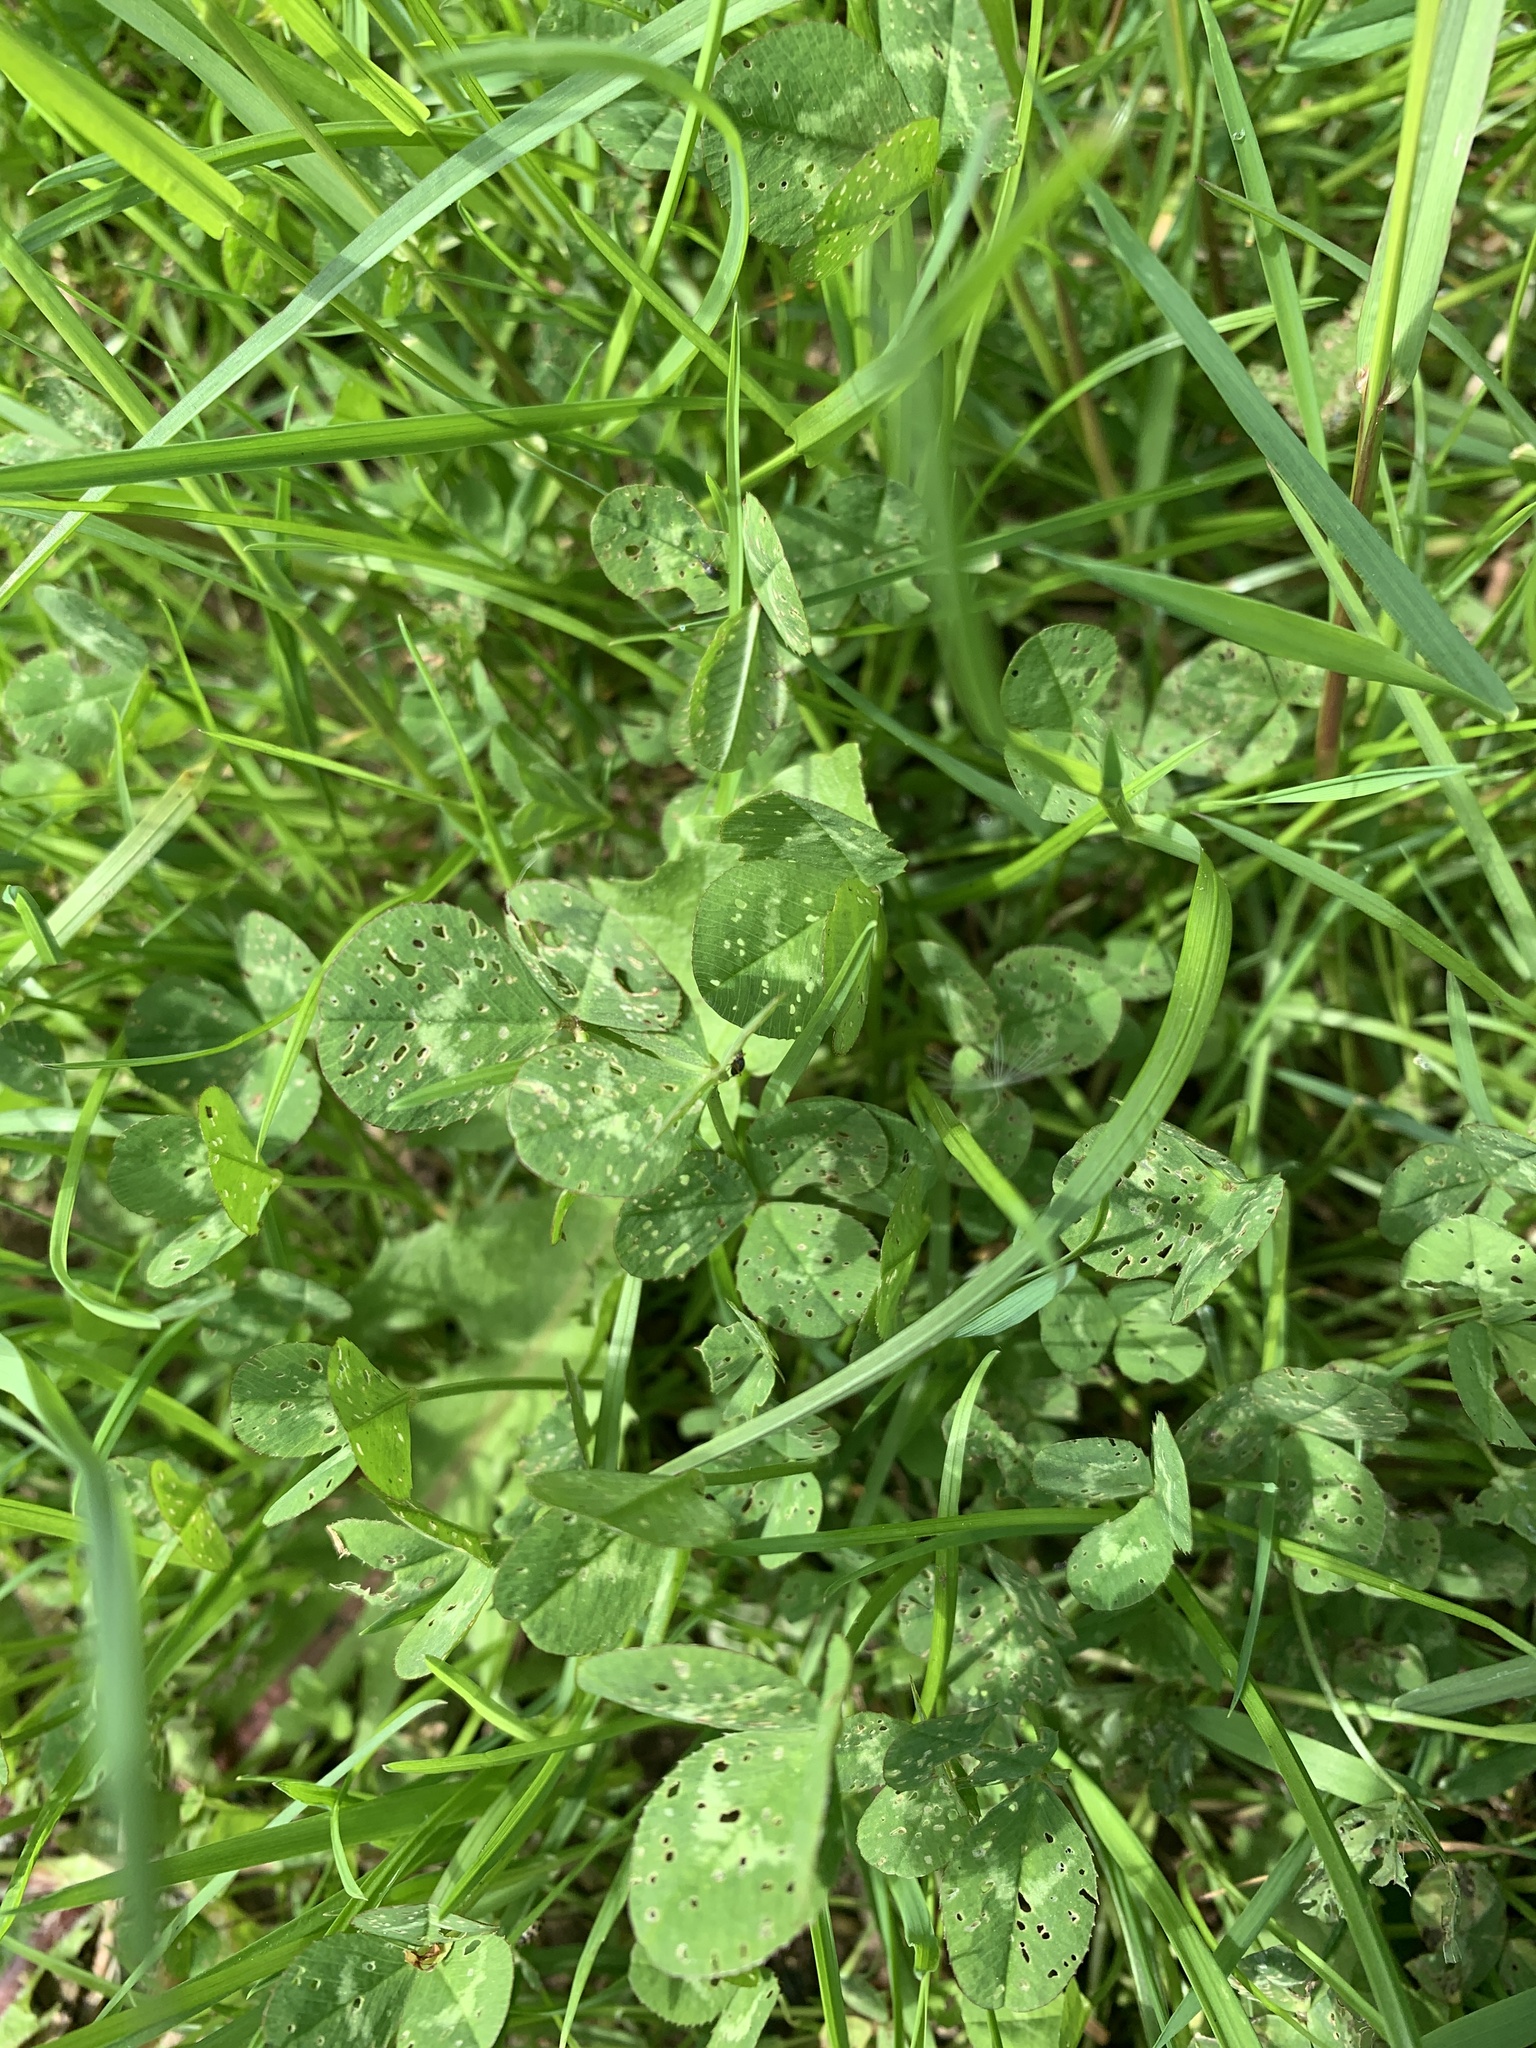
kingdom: Plantae
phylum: Tracheophyta
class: Magnoliopsida
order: Fabales
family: Fabaceae
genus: Trifolium
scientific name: Trifolium repens
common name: White clover
